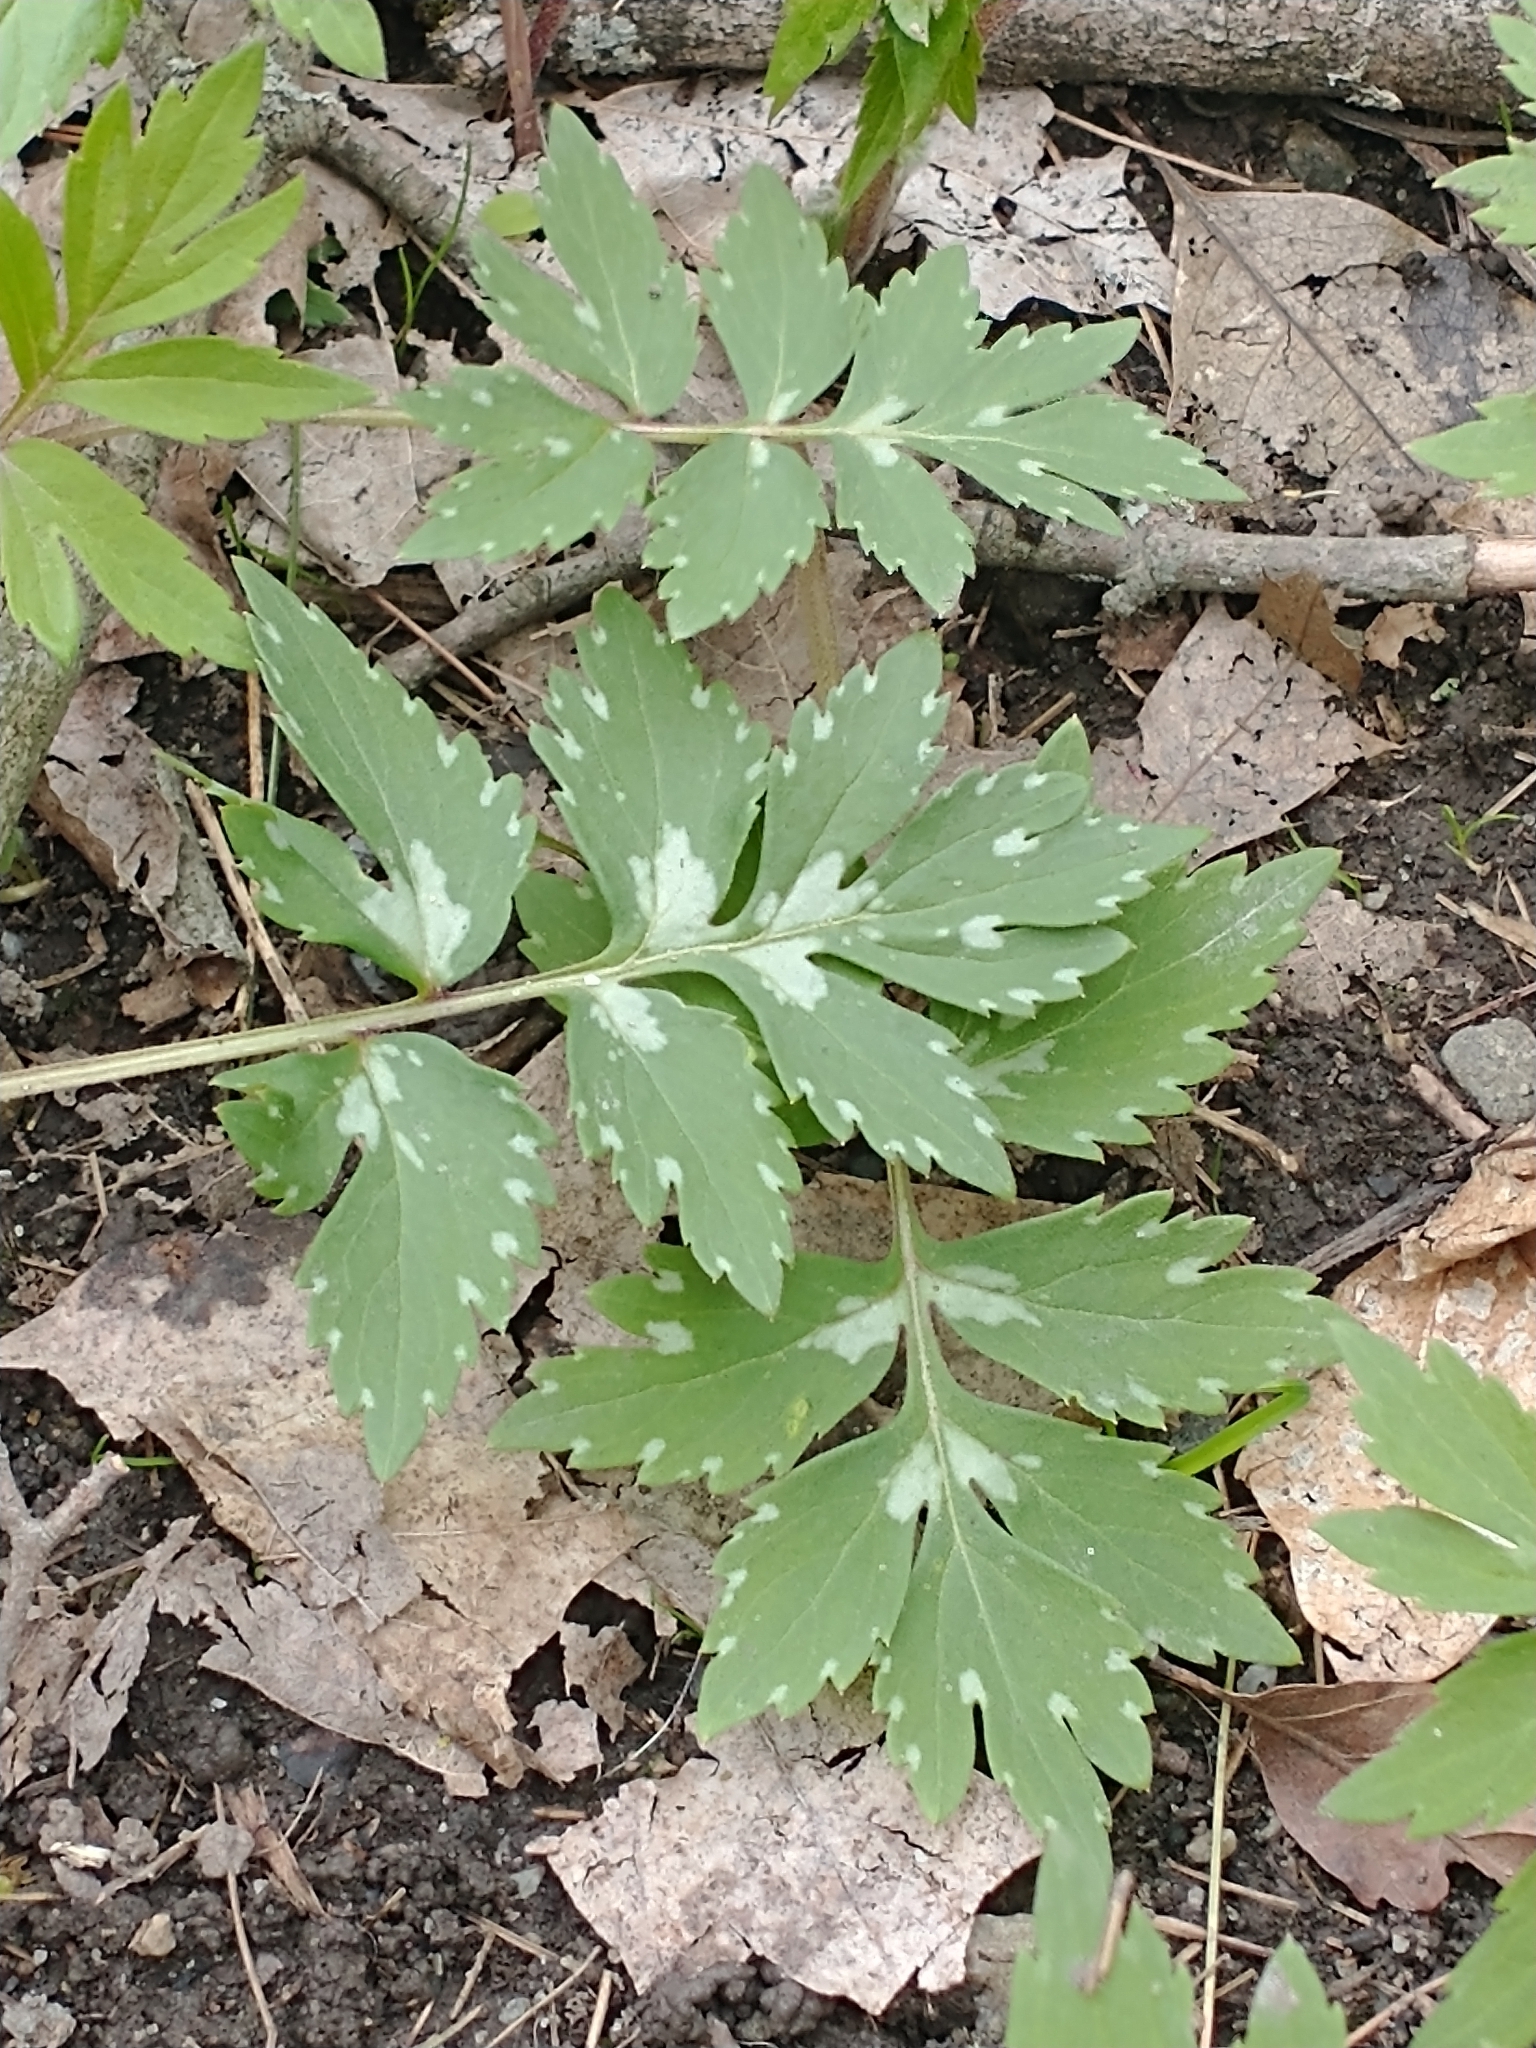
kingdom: Plantae
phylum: Tracheophyta
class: Magnoliopsida
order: Boraginales
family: Hydrophyllaceae
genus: Hydrophyllum
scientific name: Hydrophyllum virginianum
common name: Virginia waterleaf
